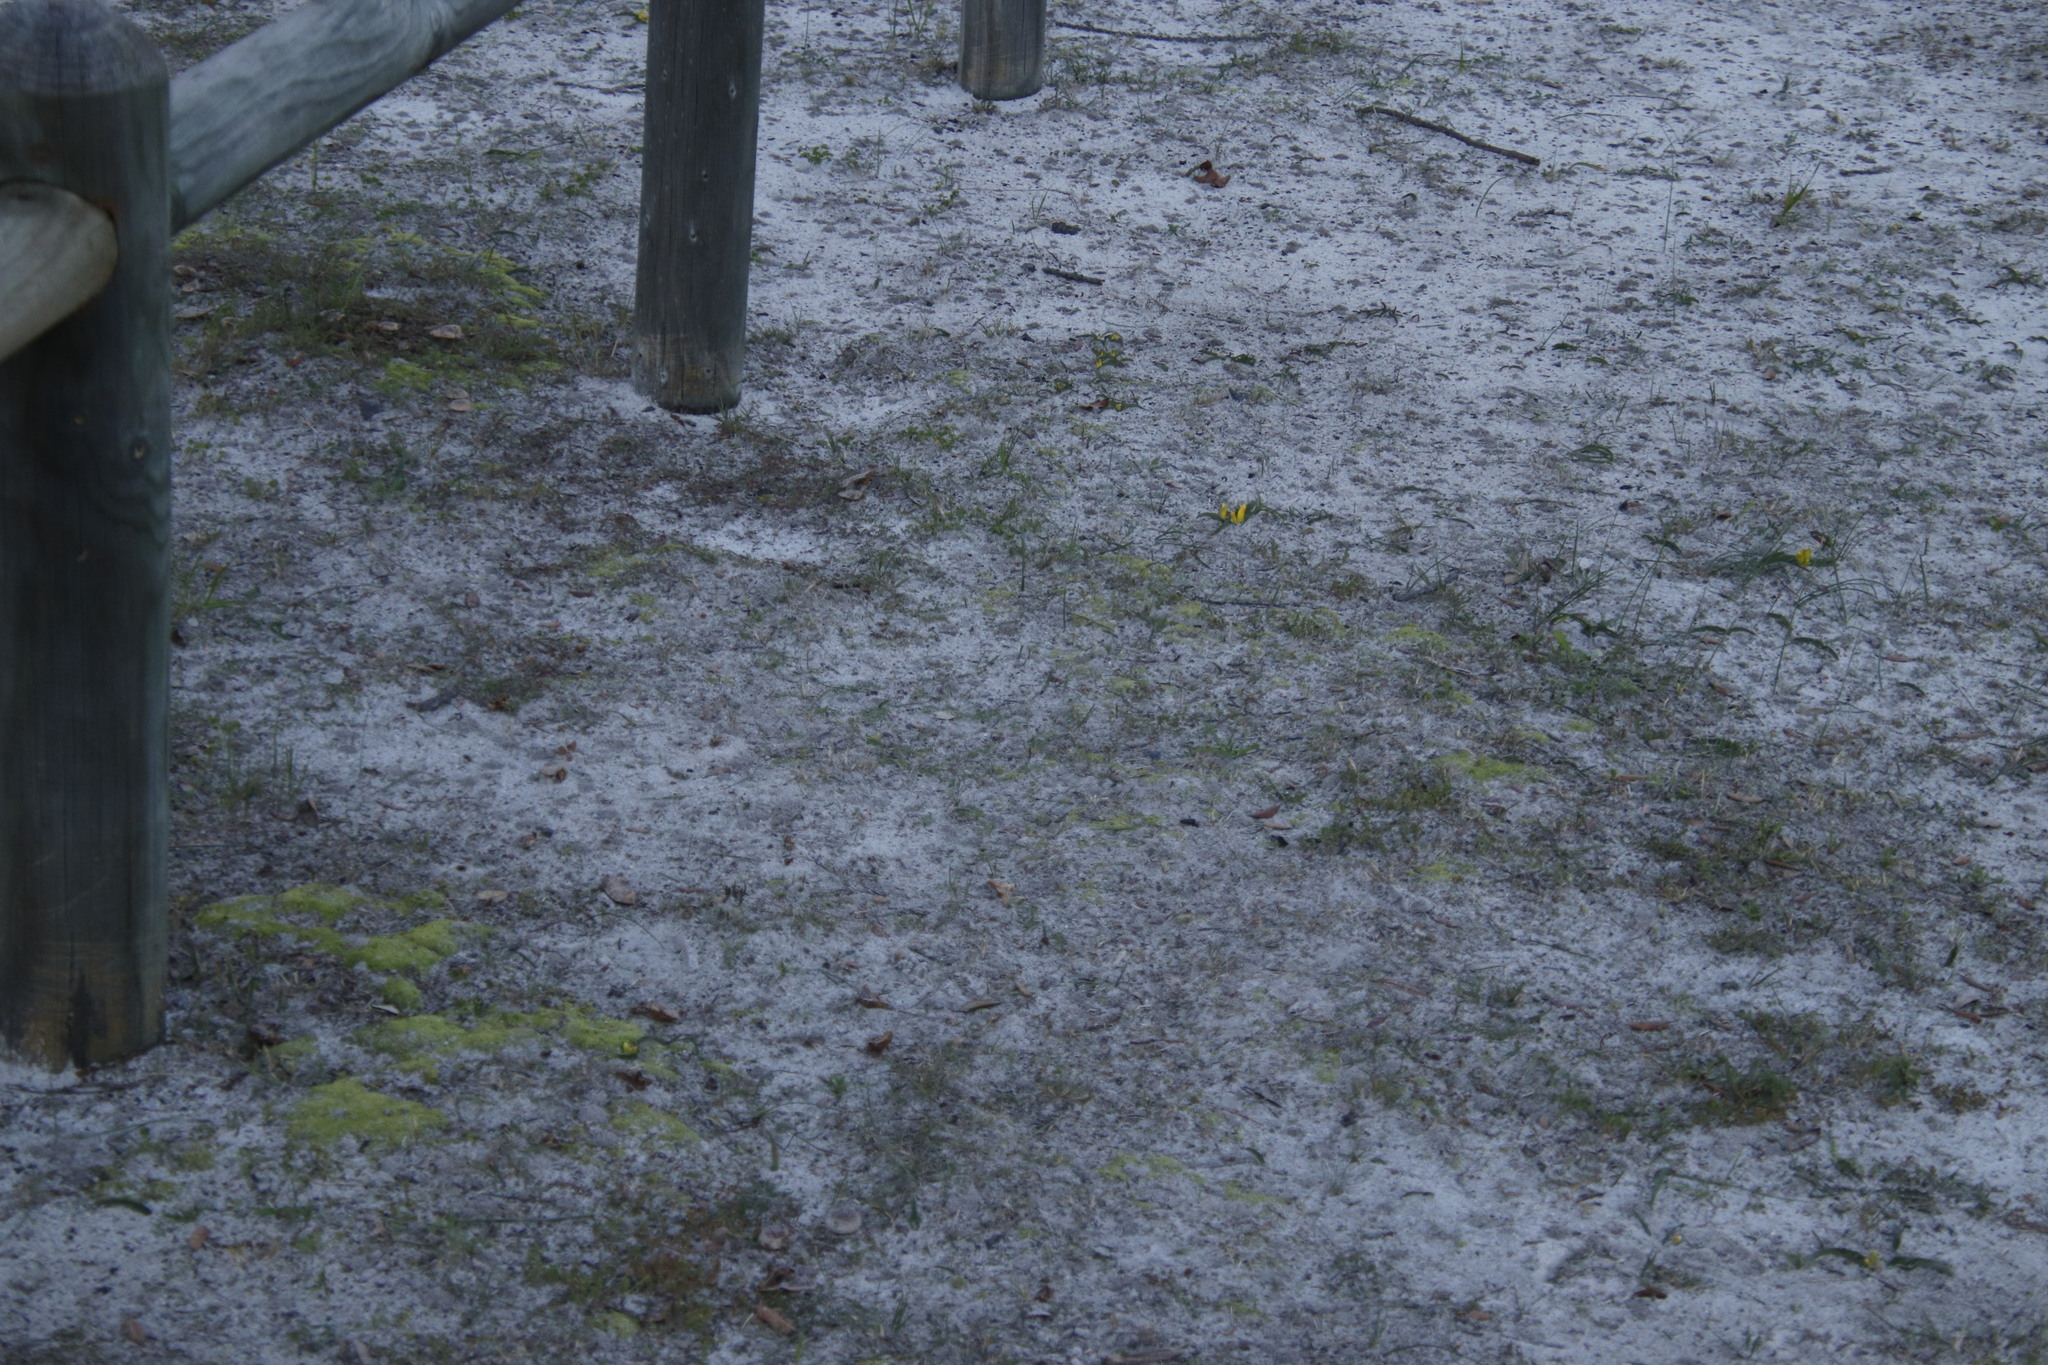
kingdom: Plantae
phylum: Tracheophyta
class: Liliopsida
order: Asparagales
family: Asparagaceae
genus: Lachenalia
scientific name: Lachenalia reflexa
